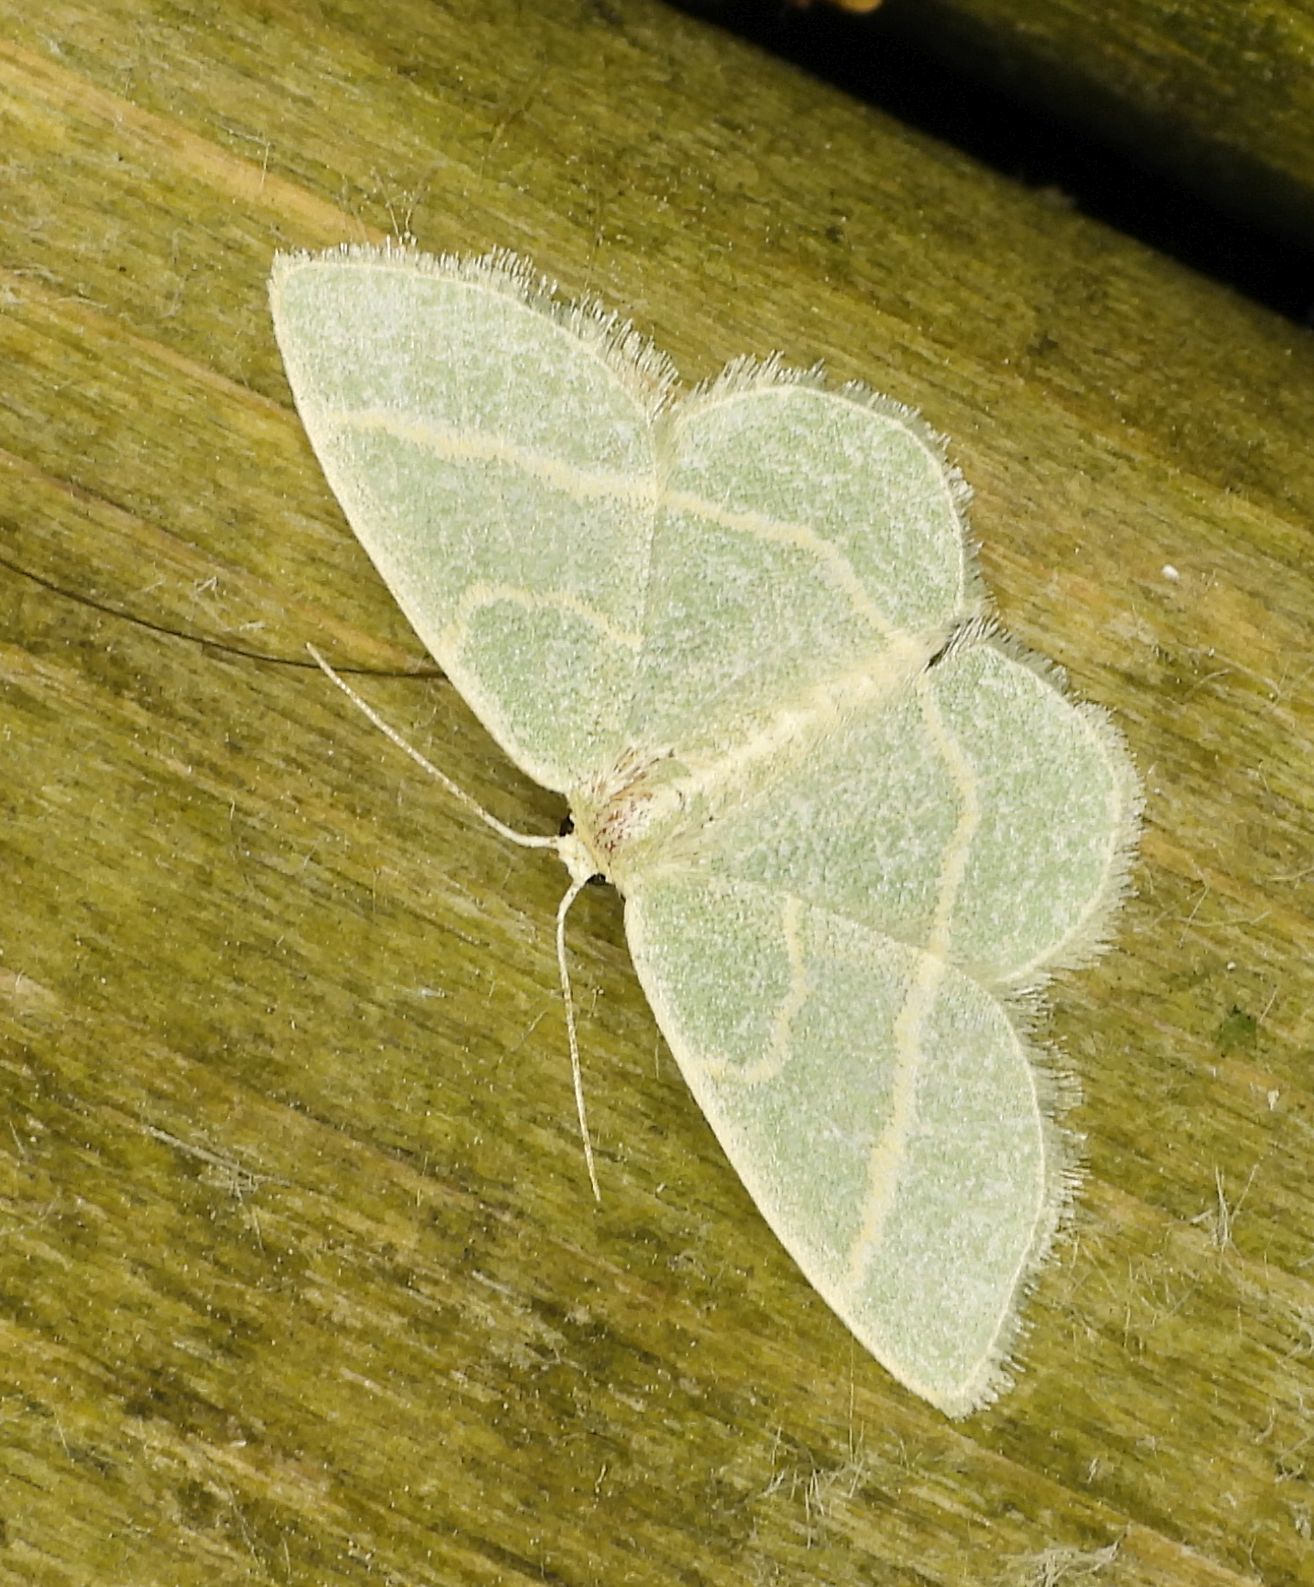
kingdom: Animalia
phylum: Arthropoda
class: Insecta
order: Lepidoptera
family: Geometridae
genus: Chlorochlamys
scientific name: Chlorochlamys chloroleucaria
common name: Blackberry looper
